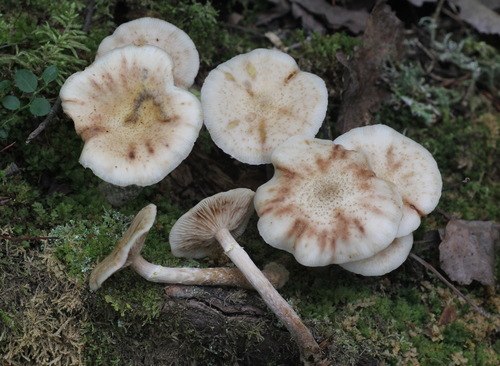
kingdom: Fungi
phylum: Basidiomycota
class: Agaricomycetes
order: Agaricales
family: Physalacriaceae
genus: Armillaria
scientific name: Armillaria cepistipes
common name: Mullet honey fungus
